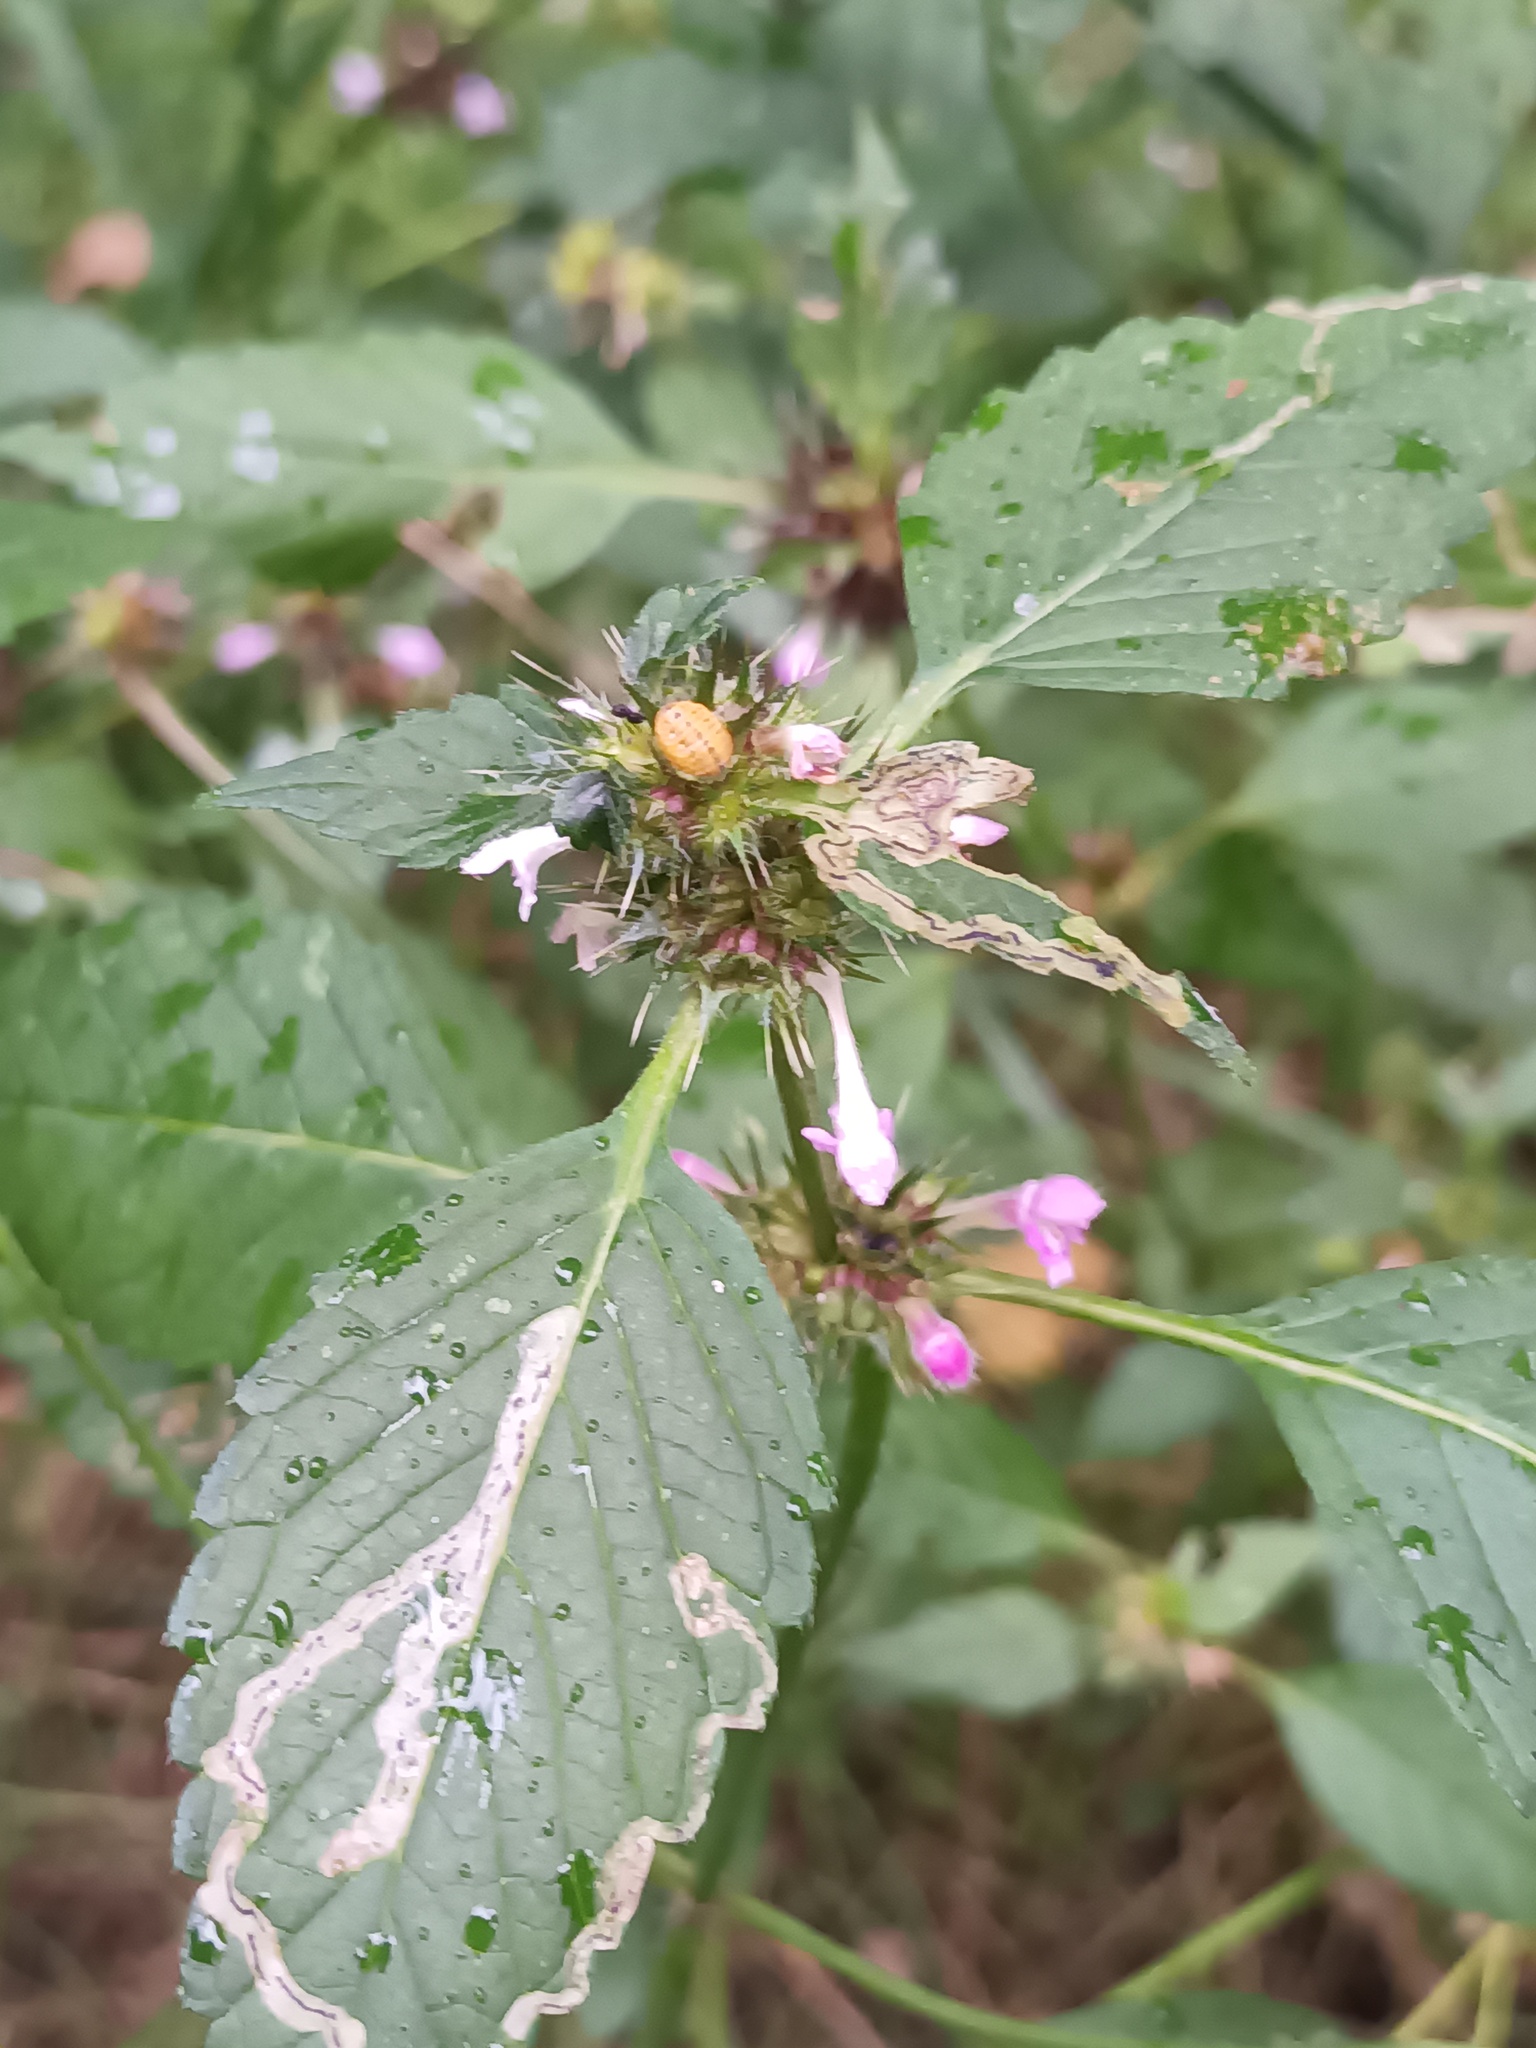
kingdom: Plantae
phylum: Tracheophyta
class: Magnoliopsida
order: Lamiales
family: Lamiaceae
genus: Galeopsis
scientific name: Galeopsis tetrahit
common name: Common hemp-nettle
